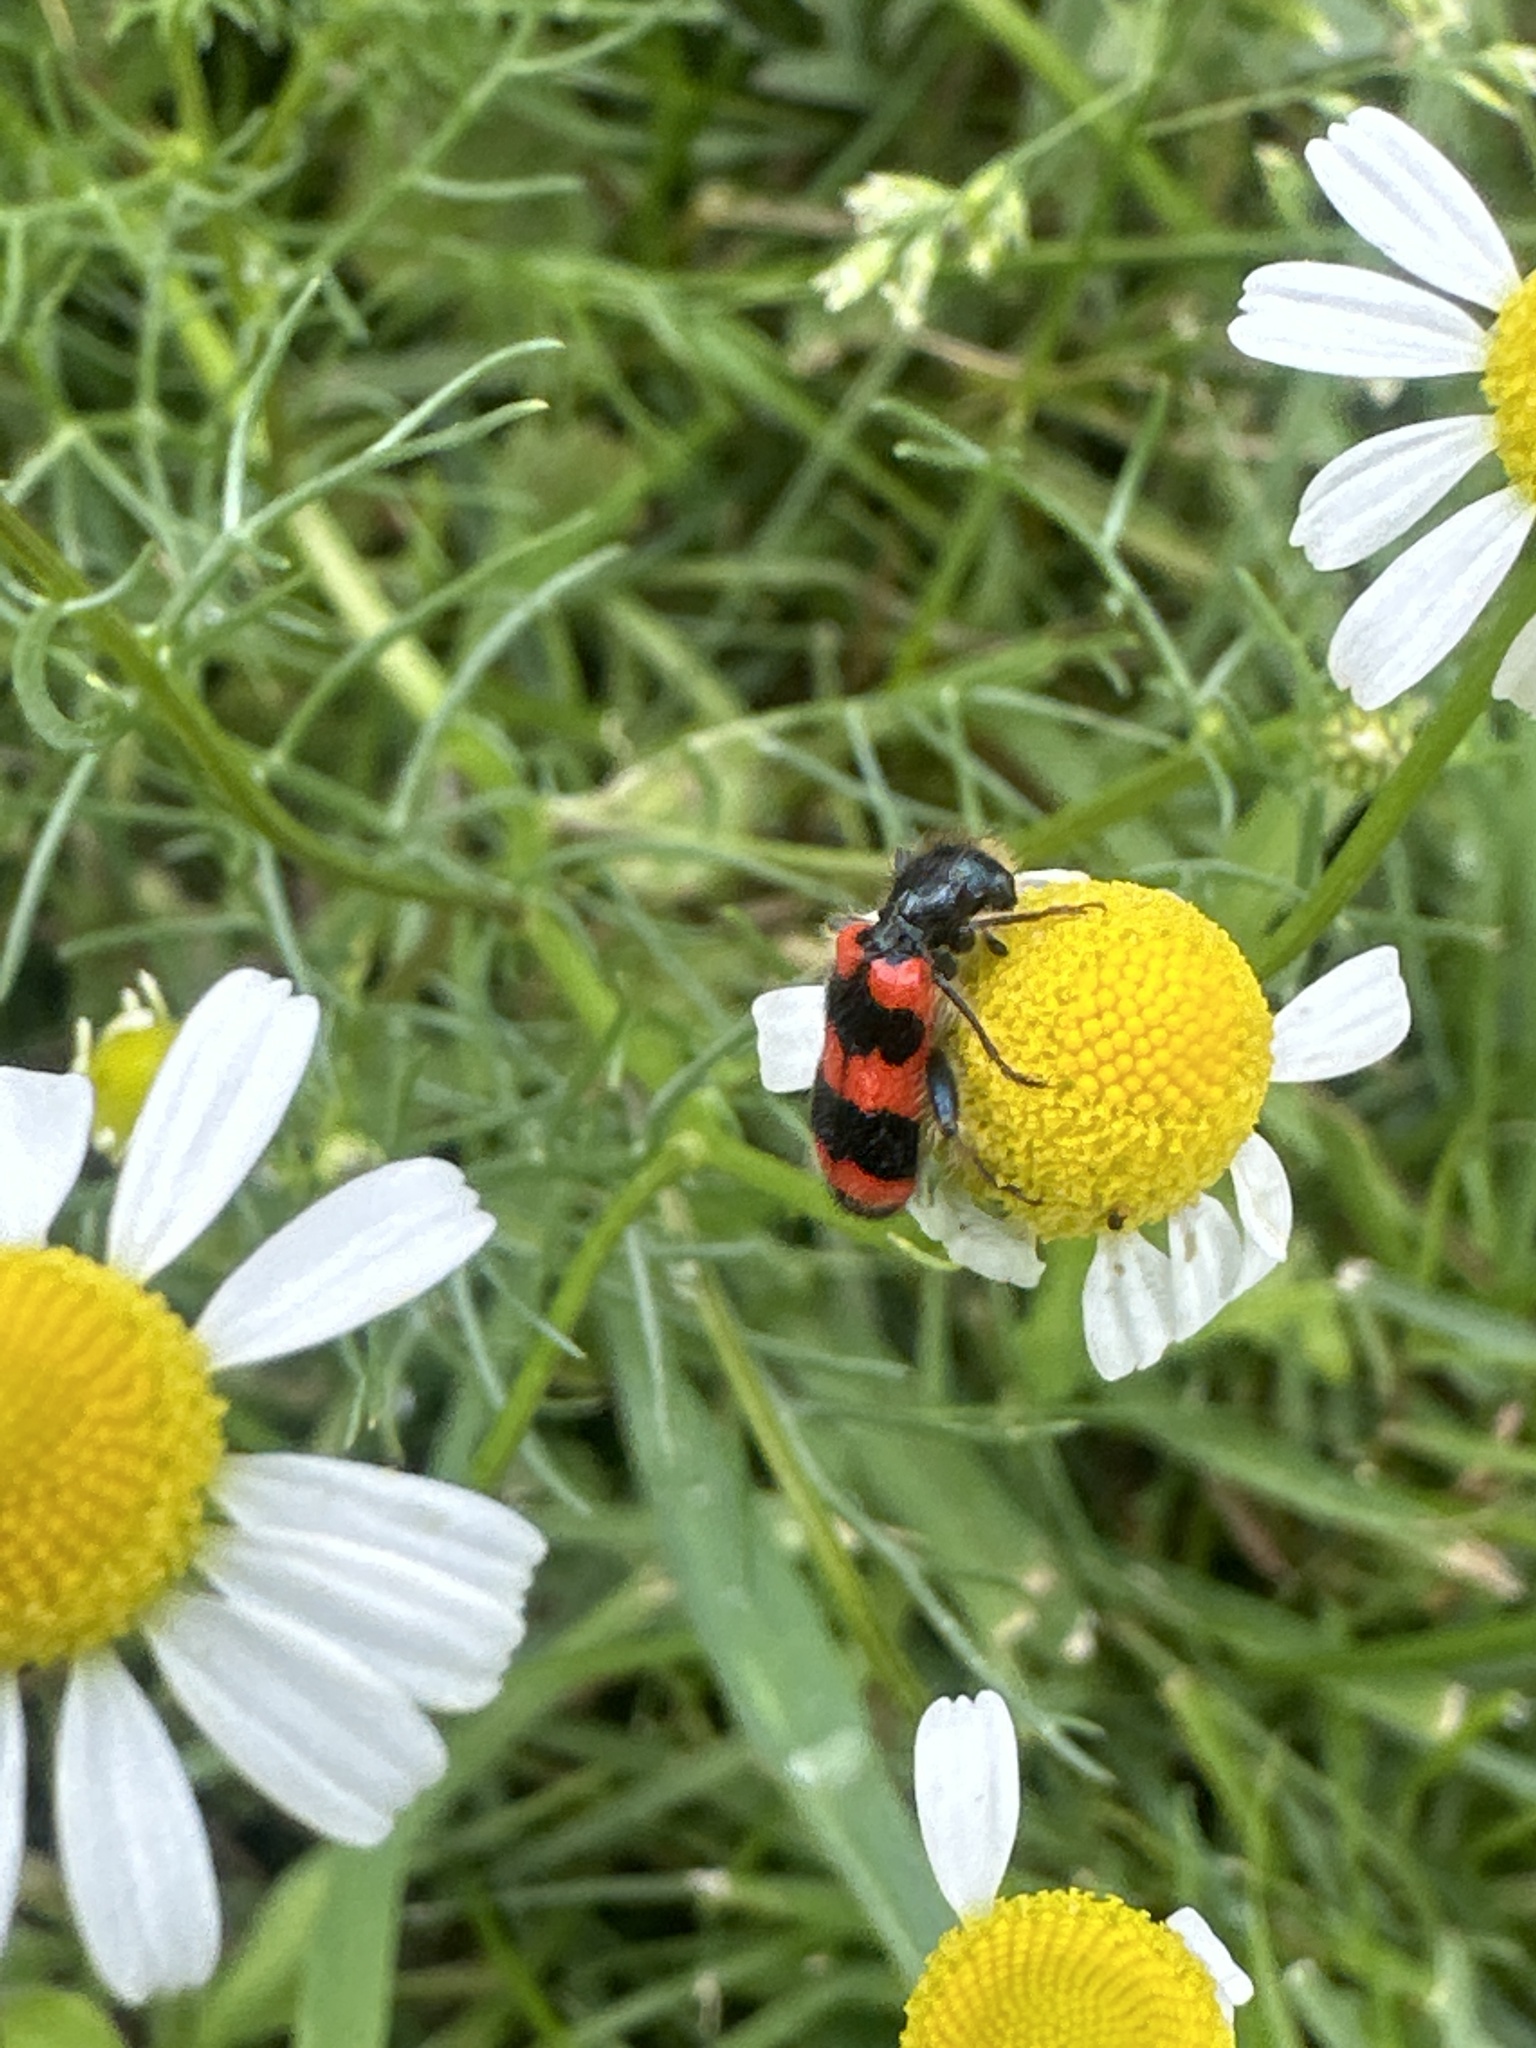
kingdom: Animalia
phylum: Arthropoda
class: Insecta
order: Coleoptera
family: Cleridae
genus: Trichodes
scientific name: Trichodes apiarius
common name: Bee-eating beetle
